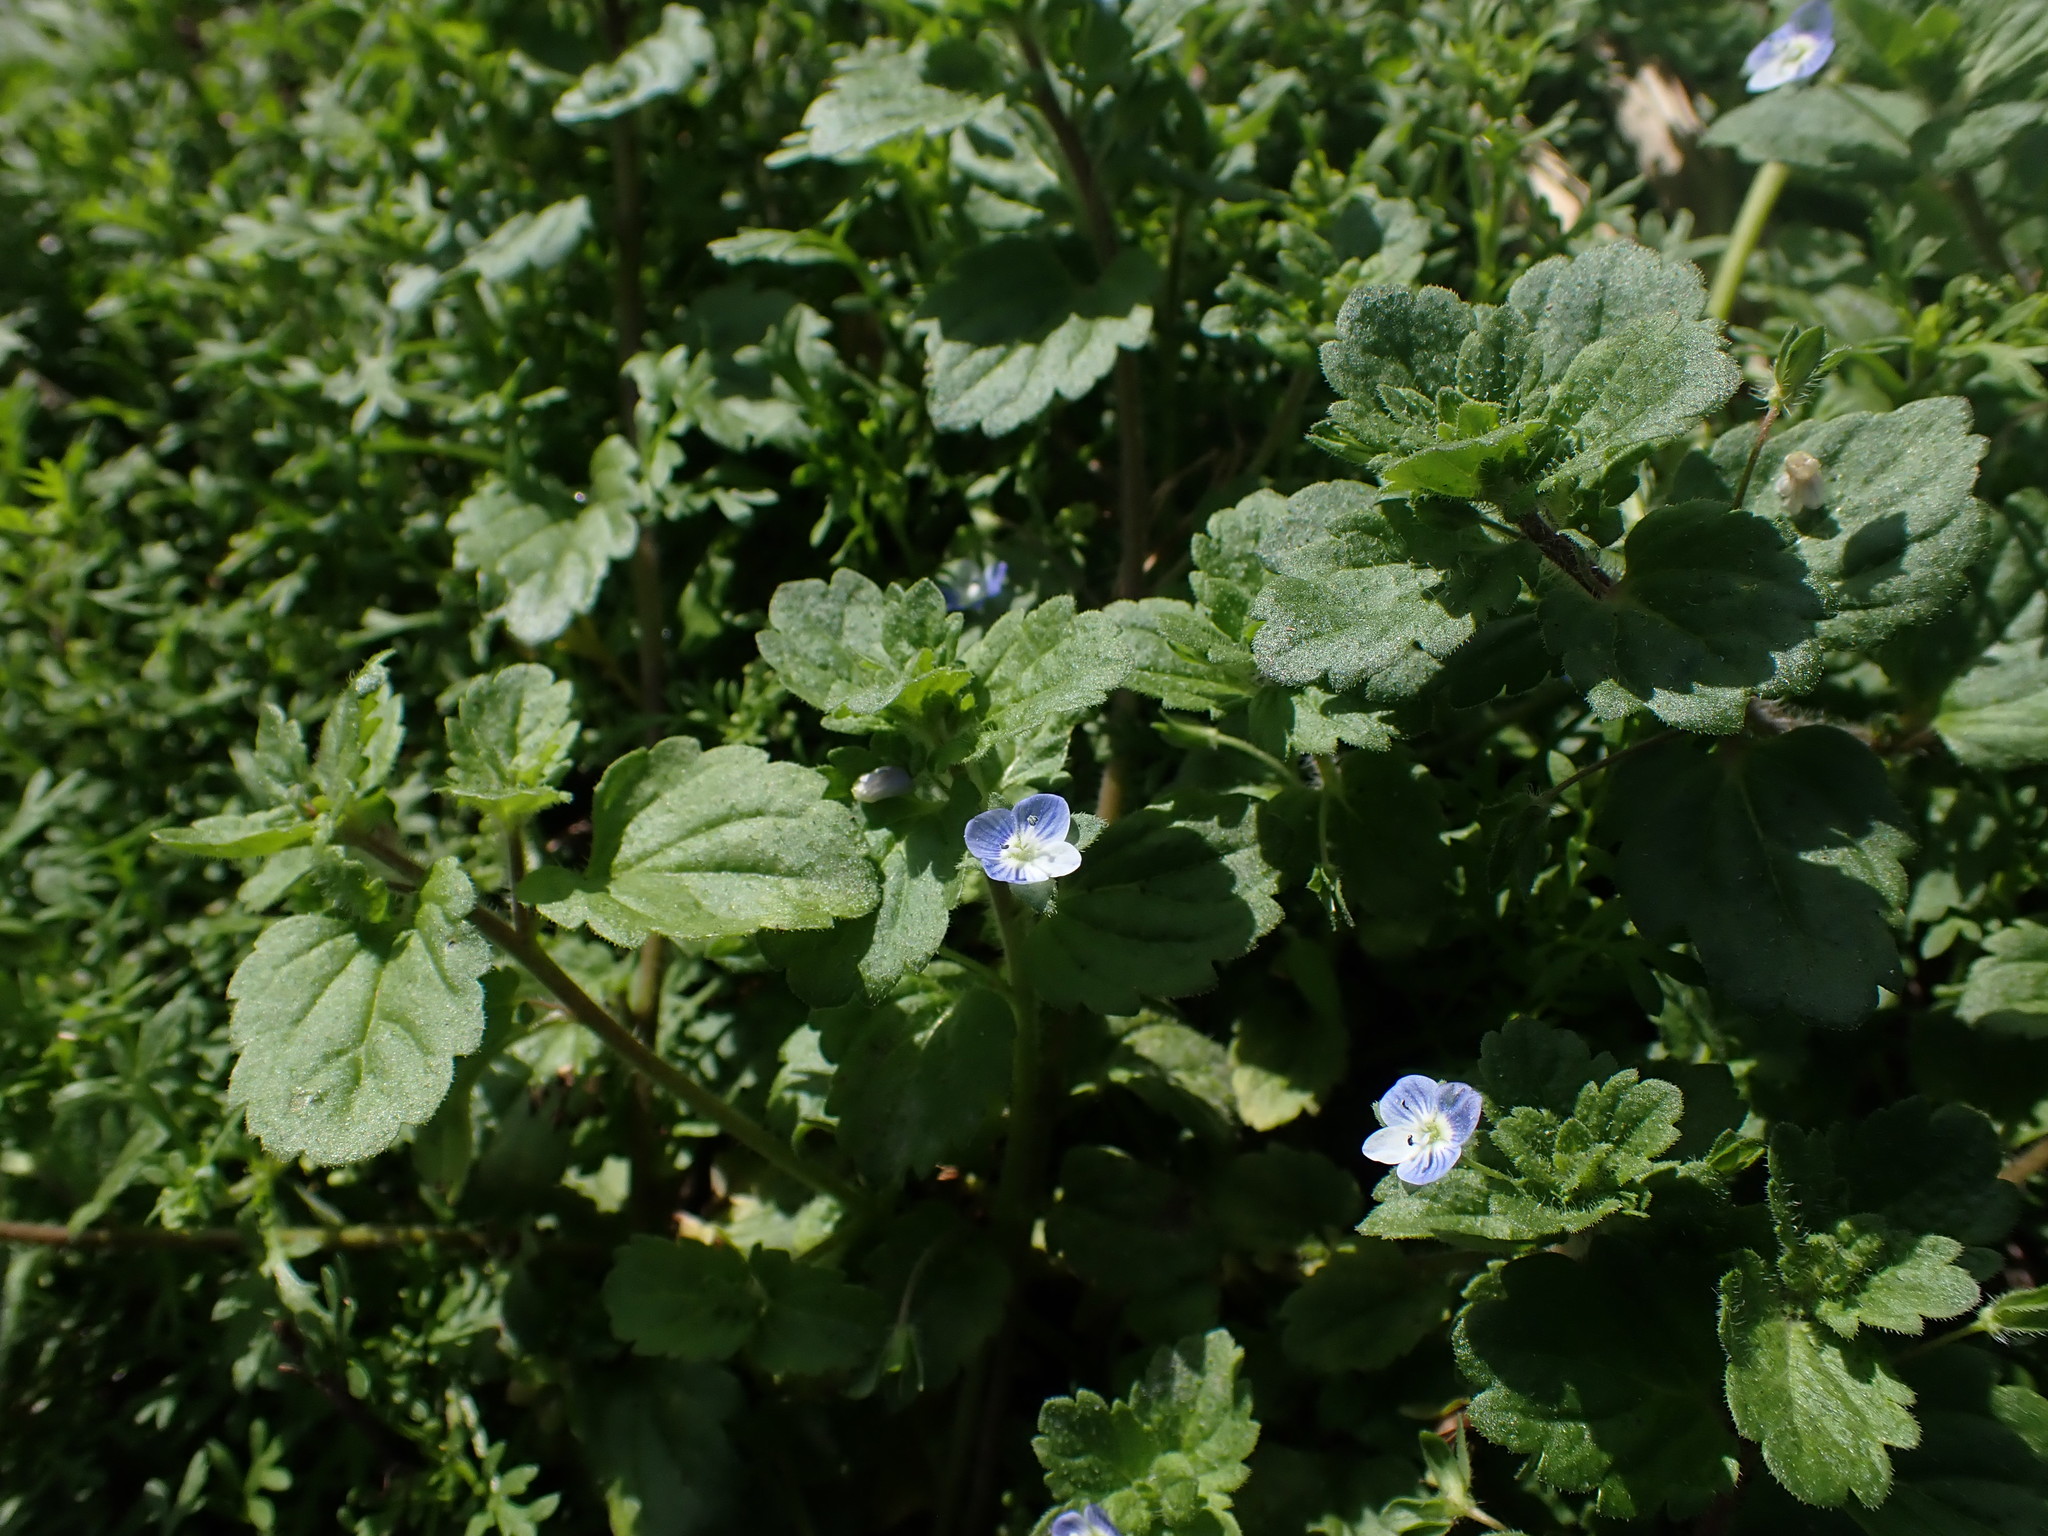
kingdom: Plantae
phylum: Tracheophyta
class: Magnoliopsida
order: Lamiales
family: Plantaginaceae
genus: Veronica
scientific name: Veronica persica
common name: Common field-speedwell
